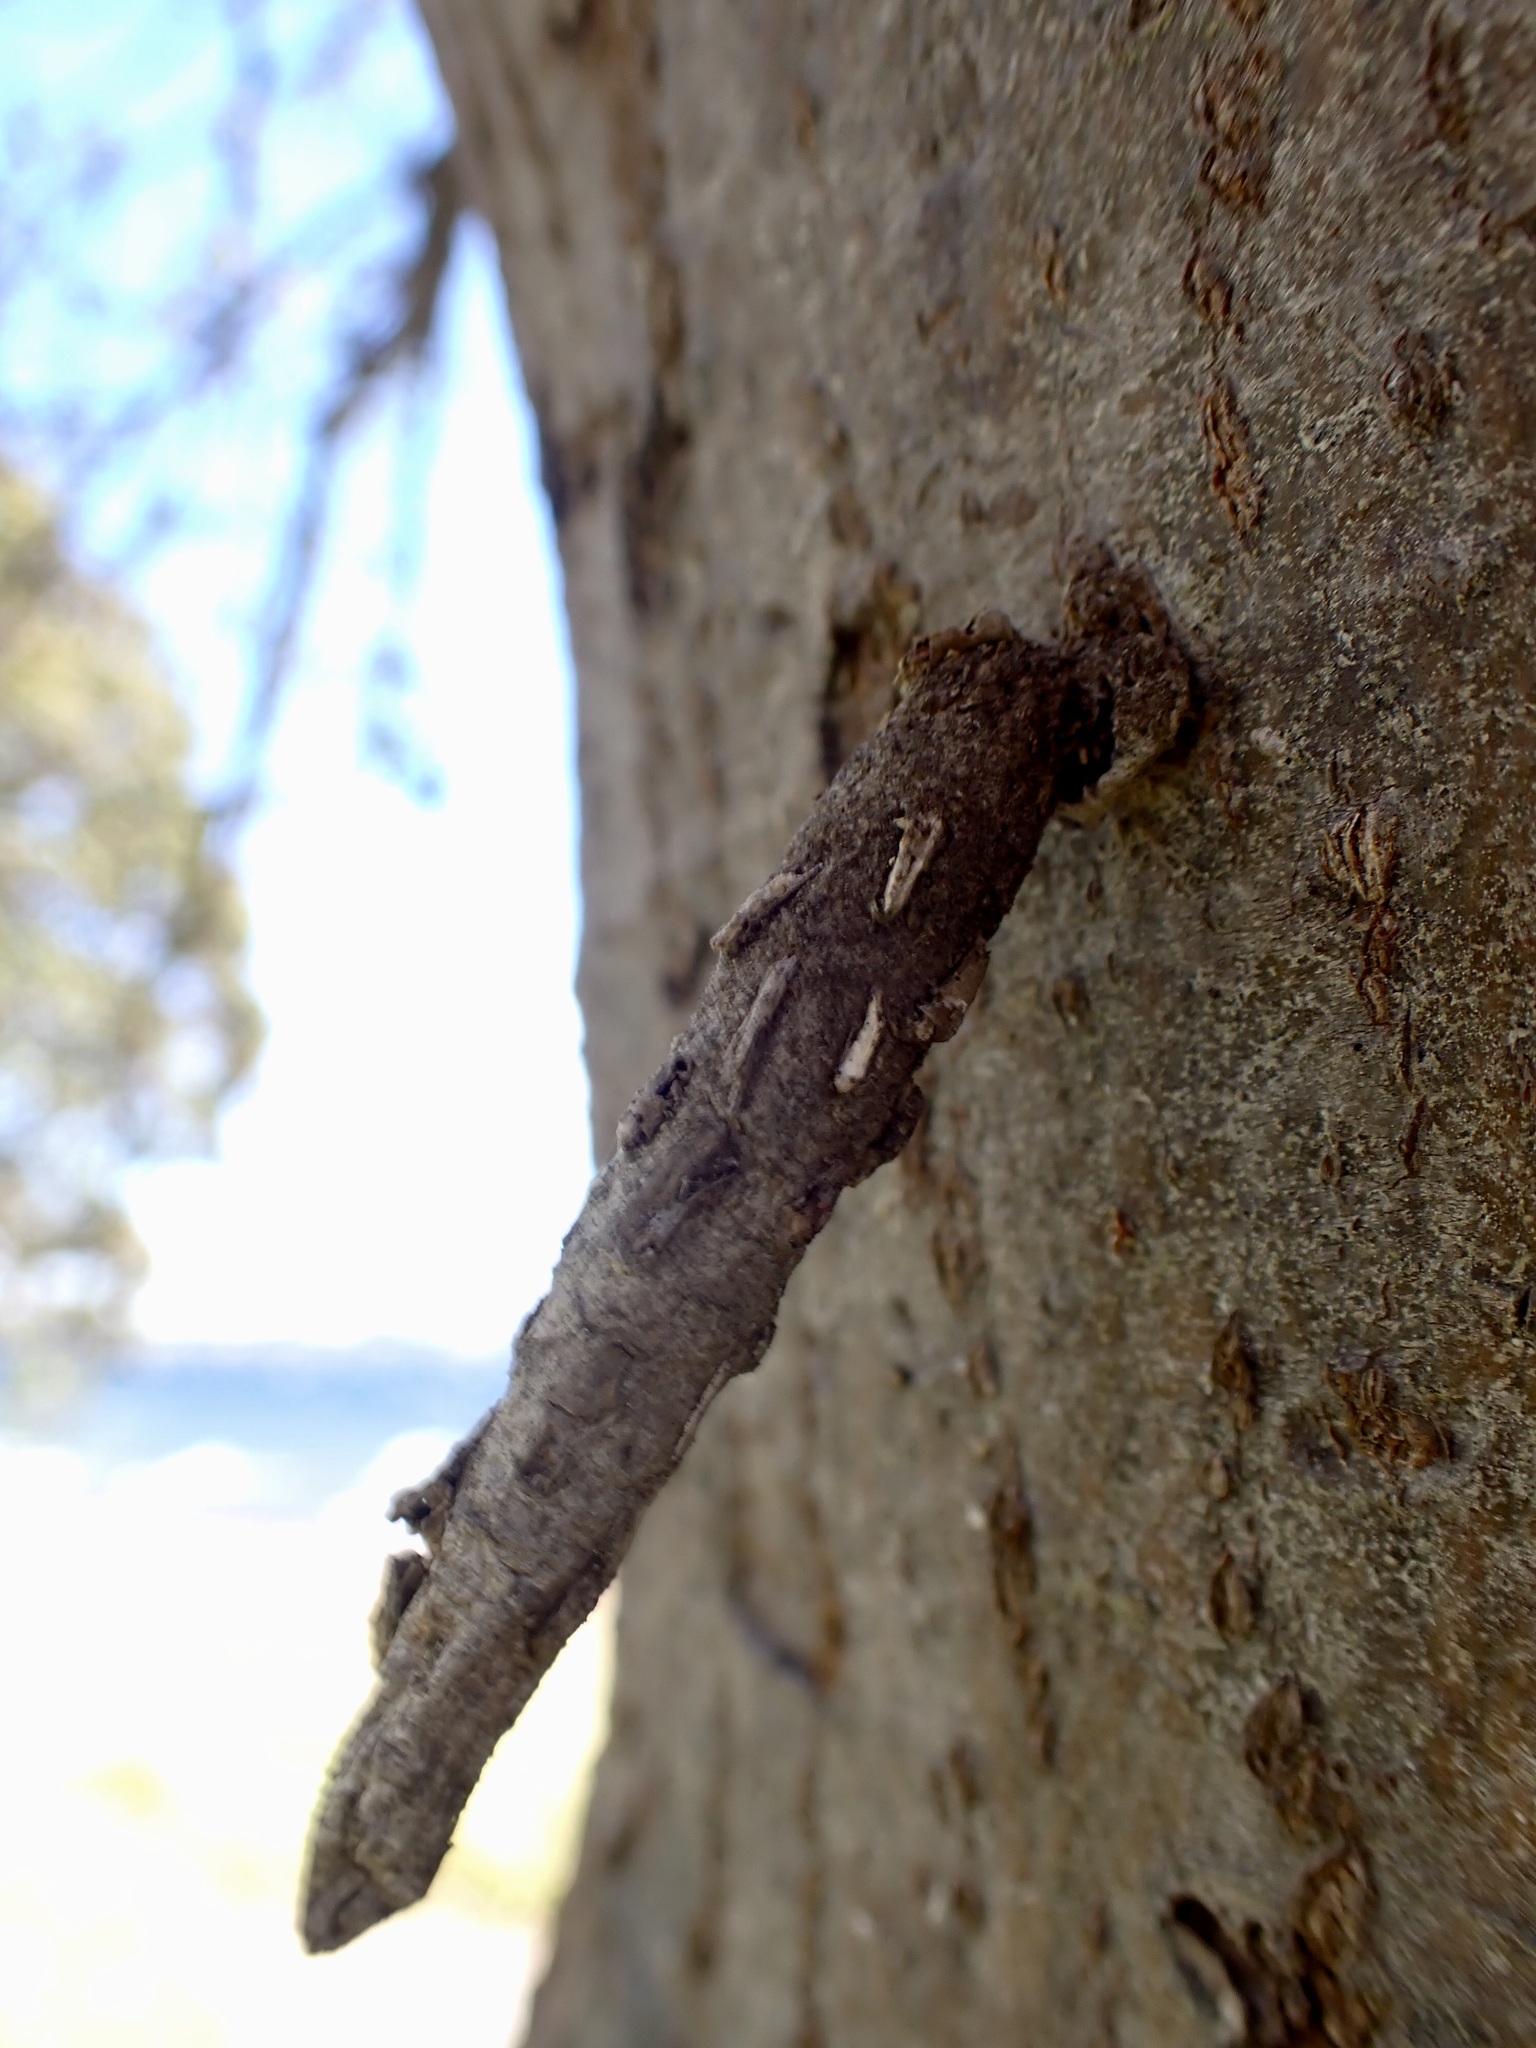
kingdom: Animalia
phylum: Arthropoda
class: Insecta
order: Lepidoptera
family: Psychidae
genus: Liothula
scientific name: Liothula omnivora
